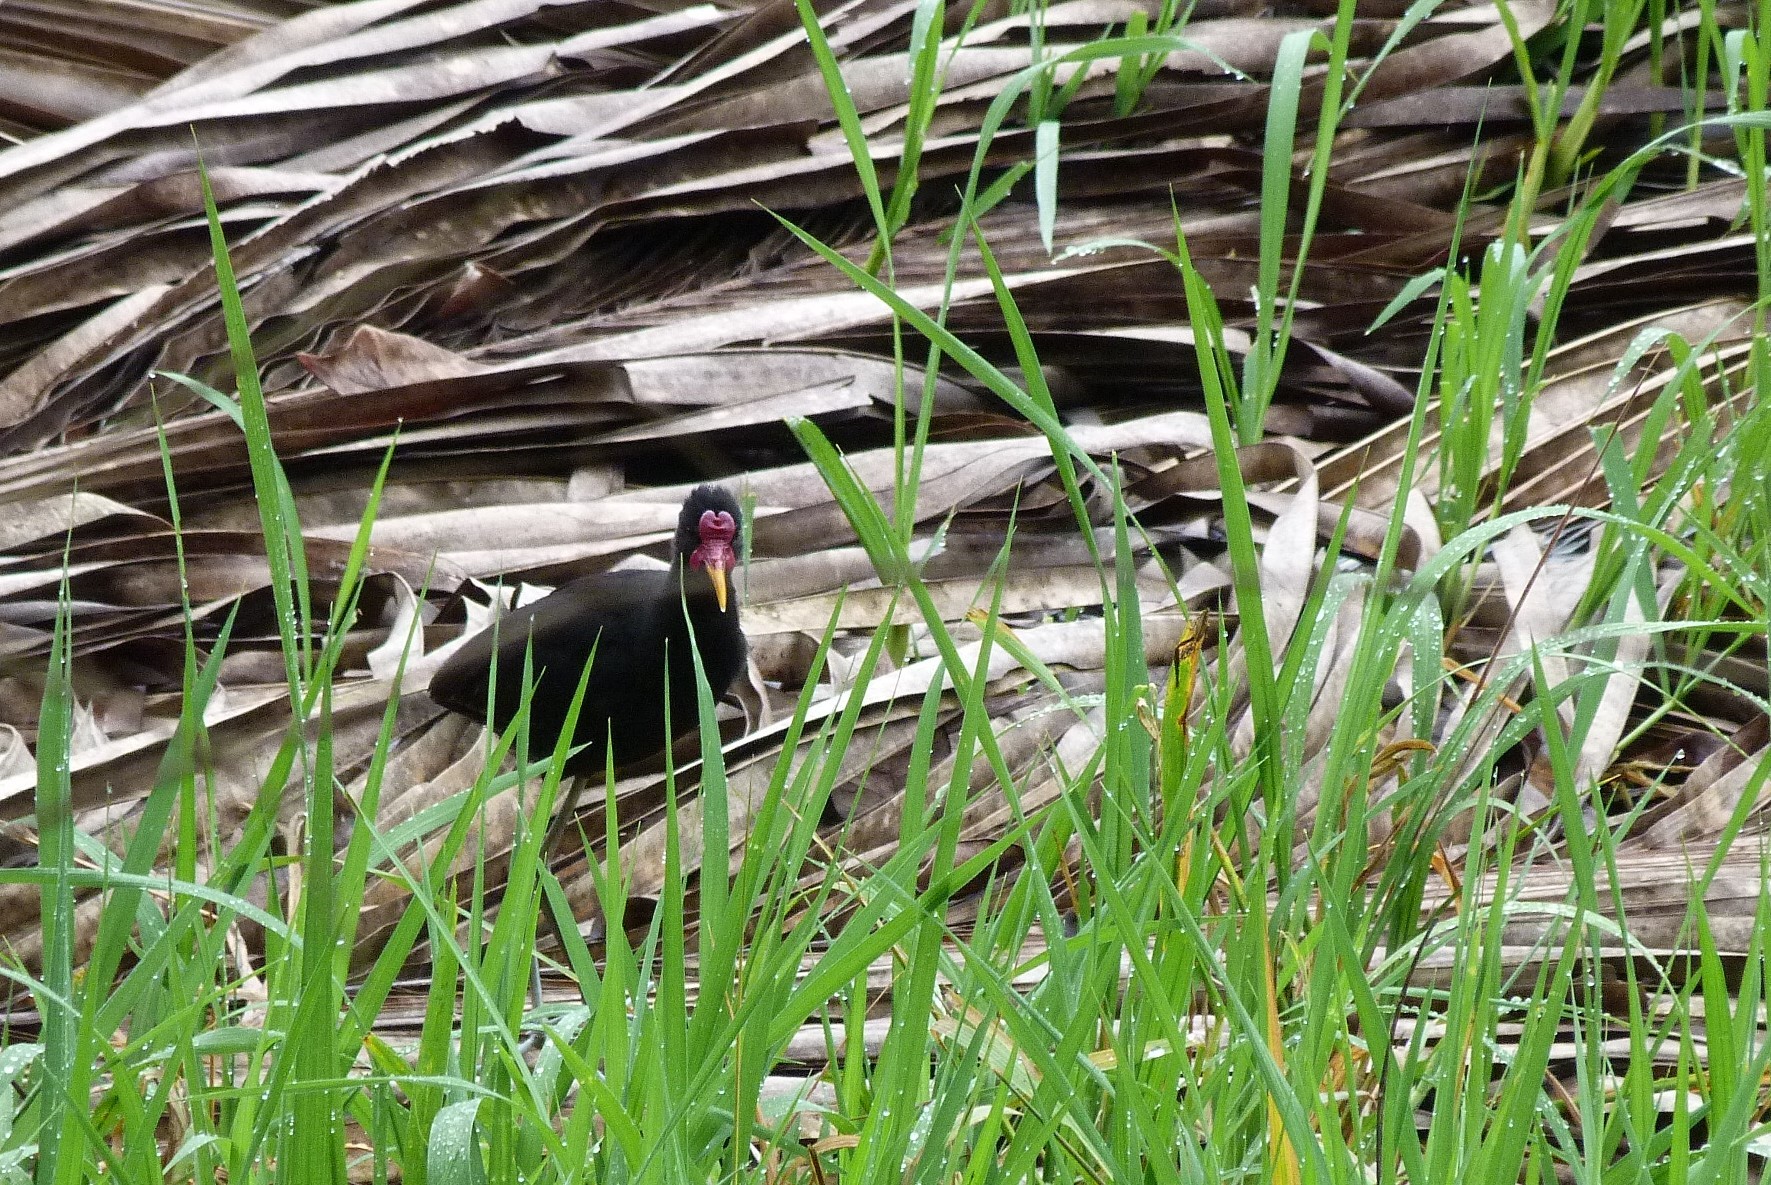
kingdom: Animalia
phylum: Chordata
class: Aves
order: Charadriiformes
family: Jacanidae
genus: Jacana
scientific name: Jacana jacana
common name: Wattled jacana
